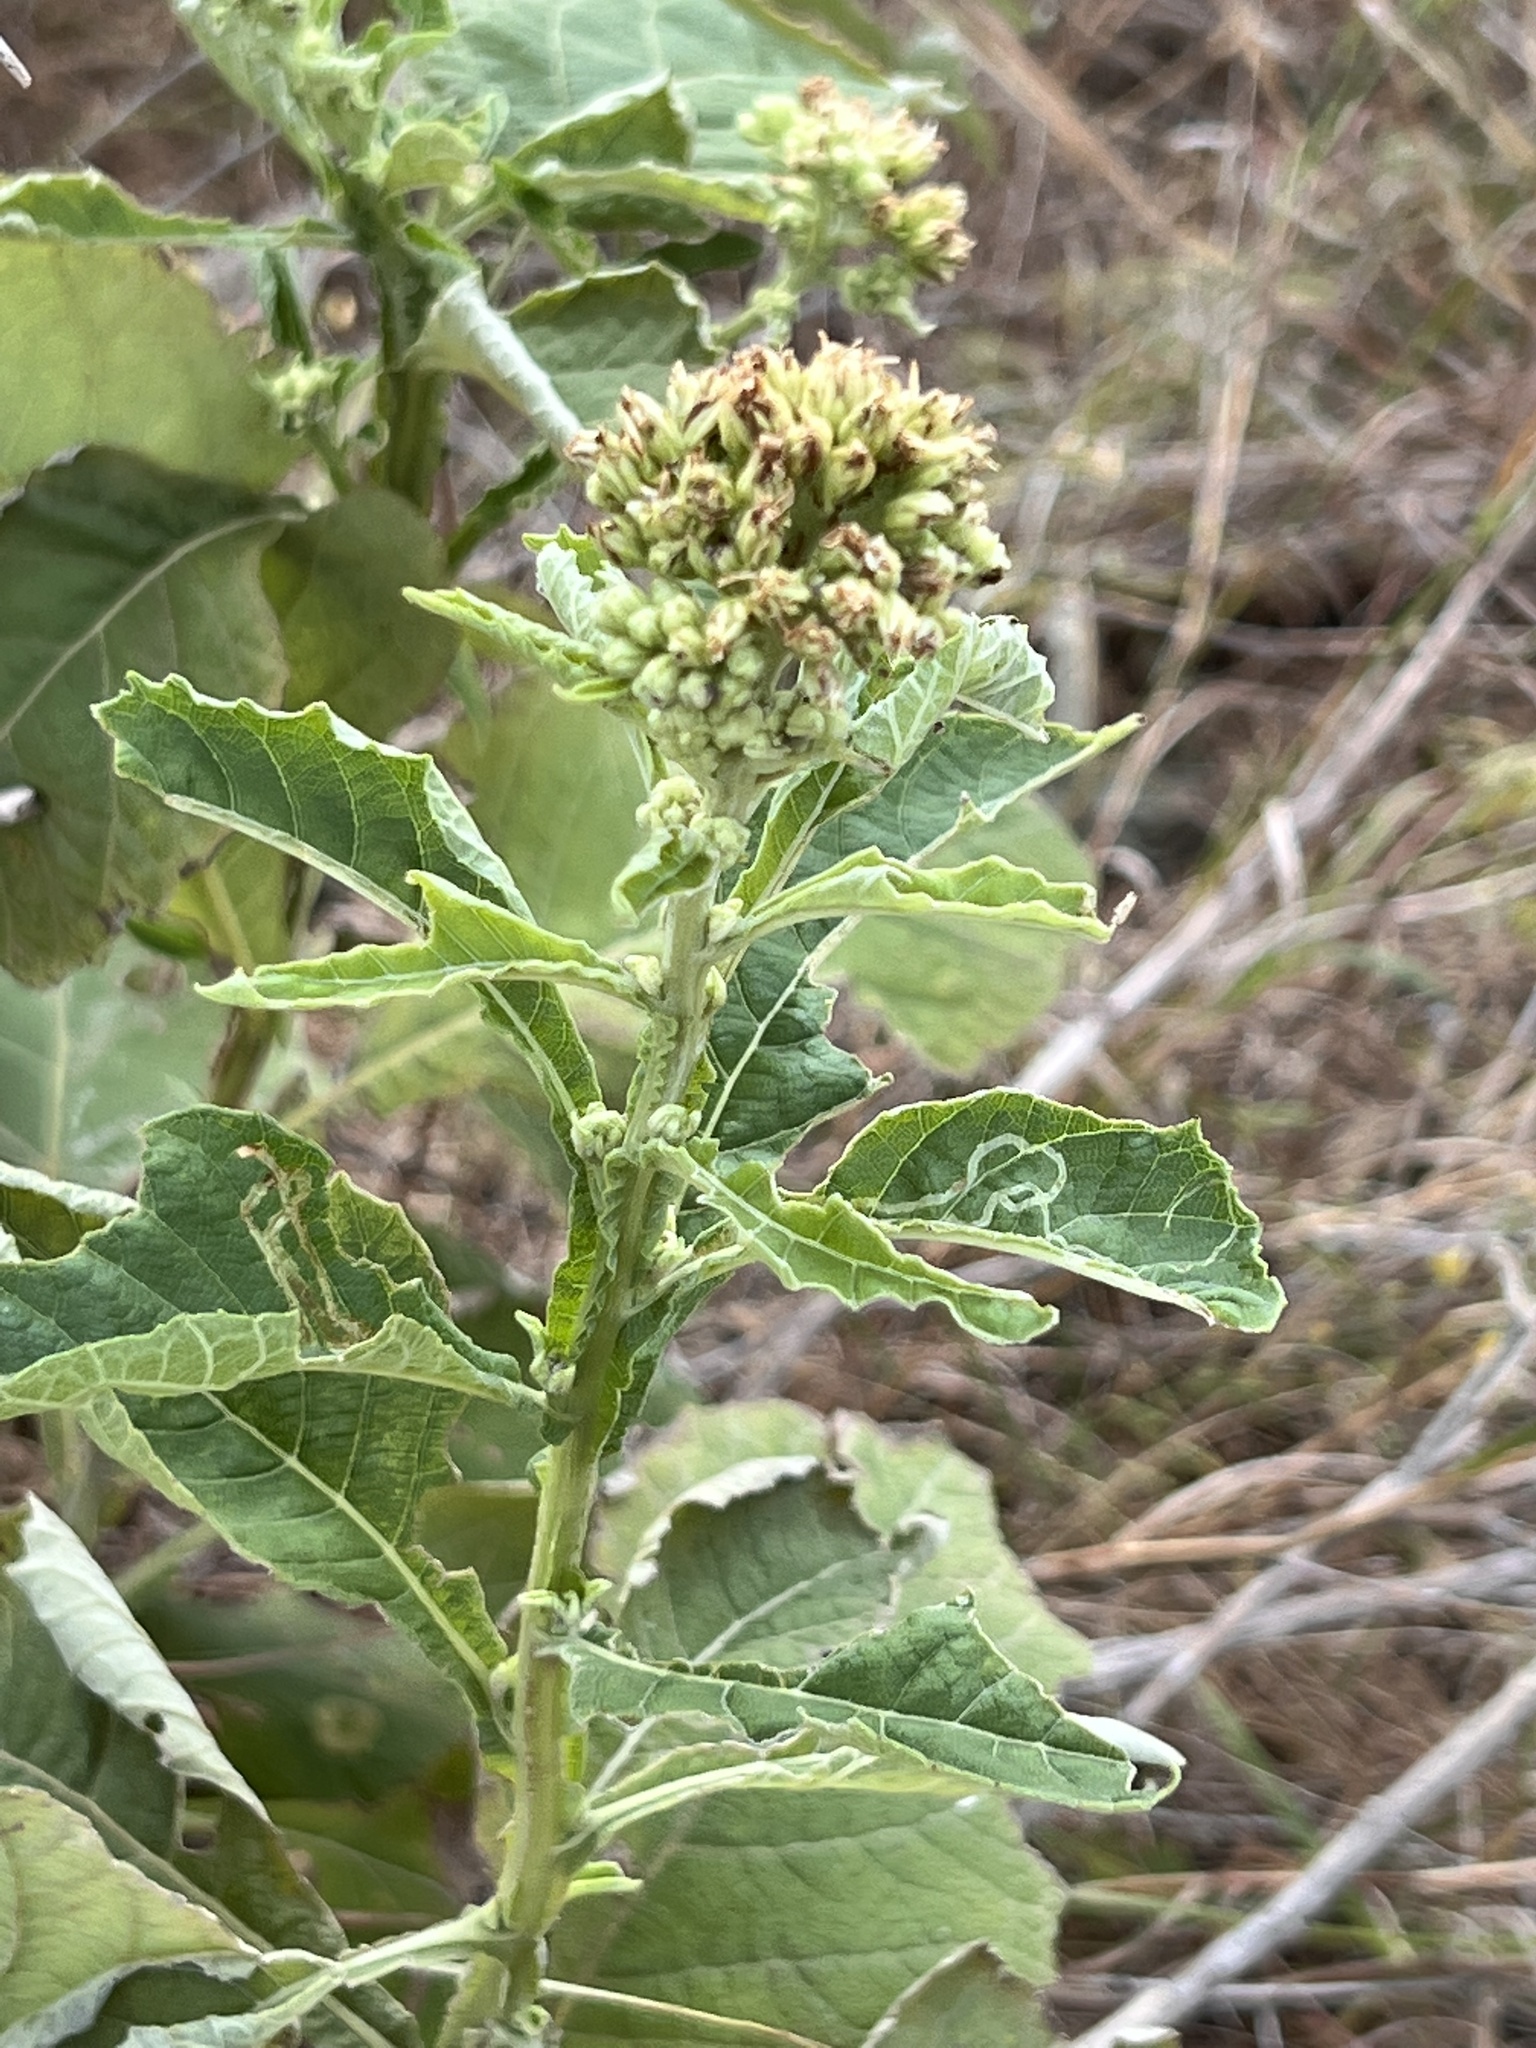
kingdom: Plantae
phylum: Tracheophyta
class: Magnoliopsida
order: Asterales
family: Asteraceae
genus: Verbesina
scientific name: Verbesina virginica
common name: Frostweed
